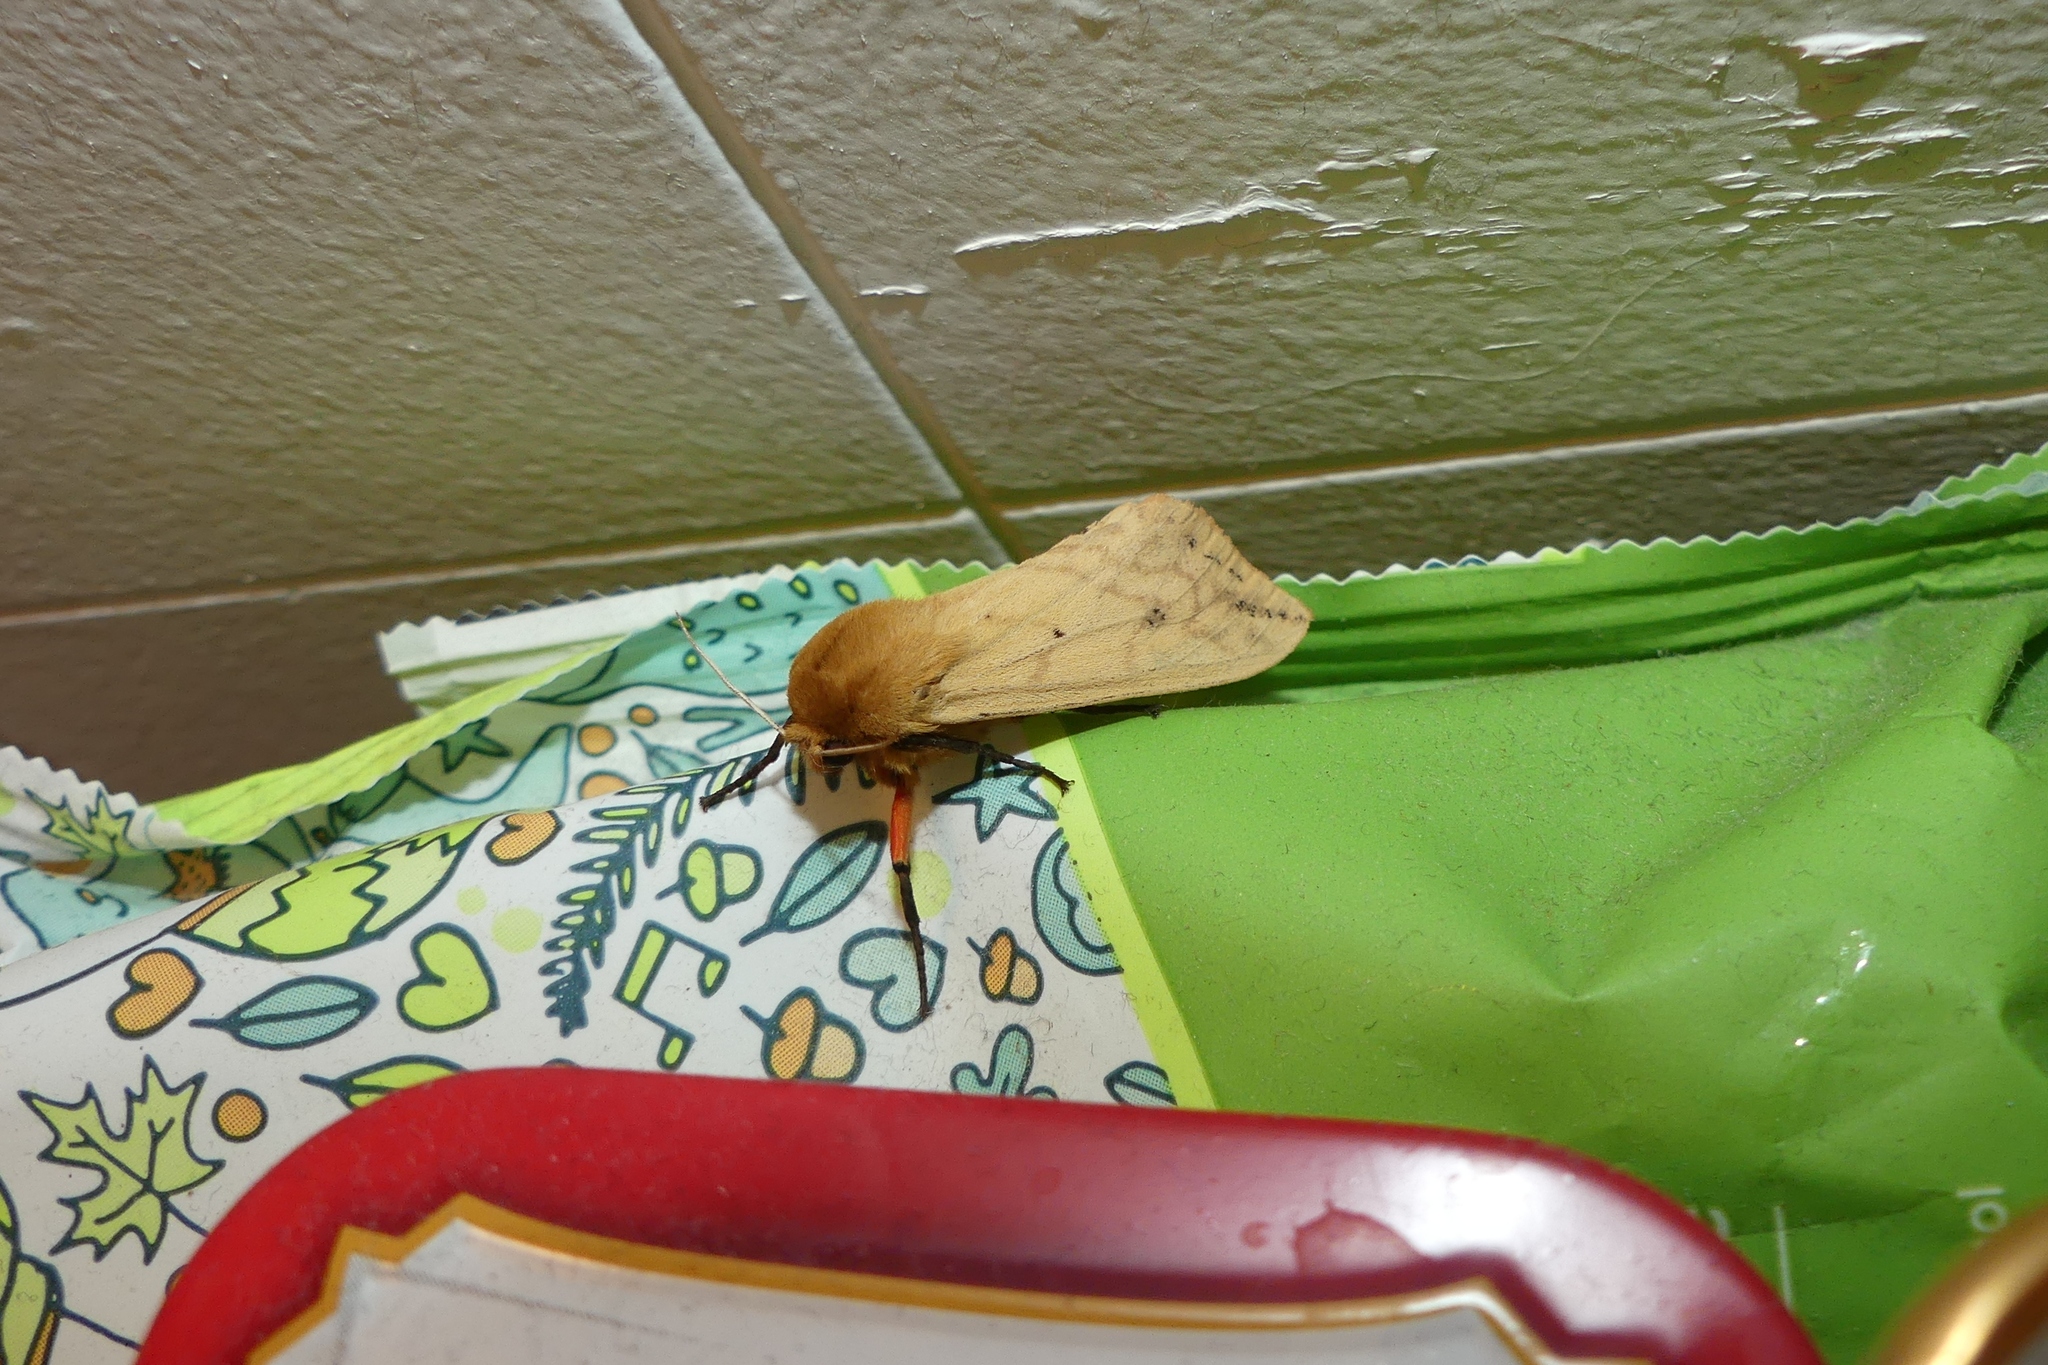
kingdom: Animalia
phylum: Arthropoda
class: Insecta
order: Lepidoptera
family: Erebidae
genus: Pyrrharctia
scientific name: Pyrrharctia isabella
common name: Isabella tiger moth
